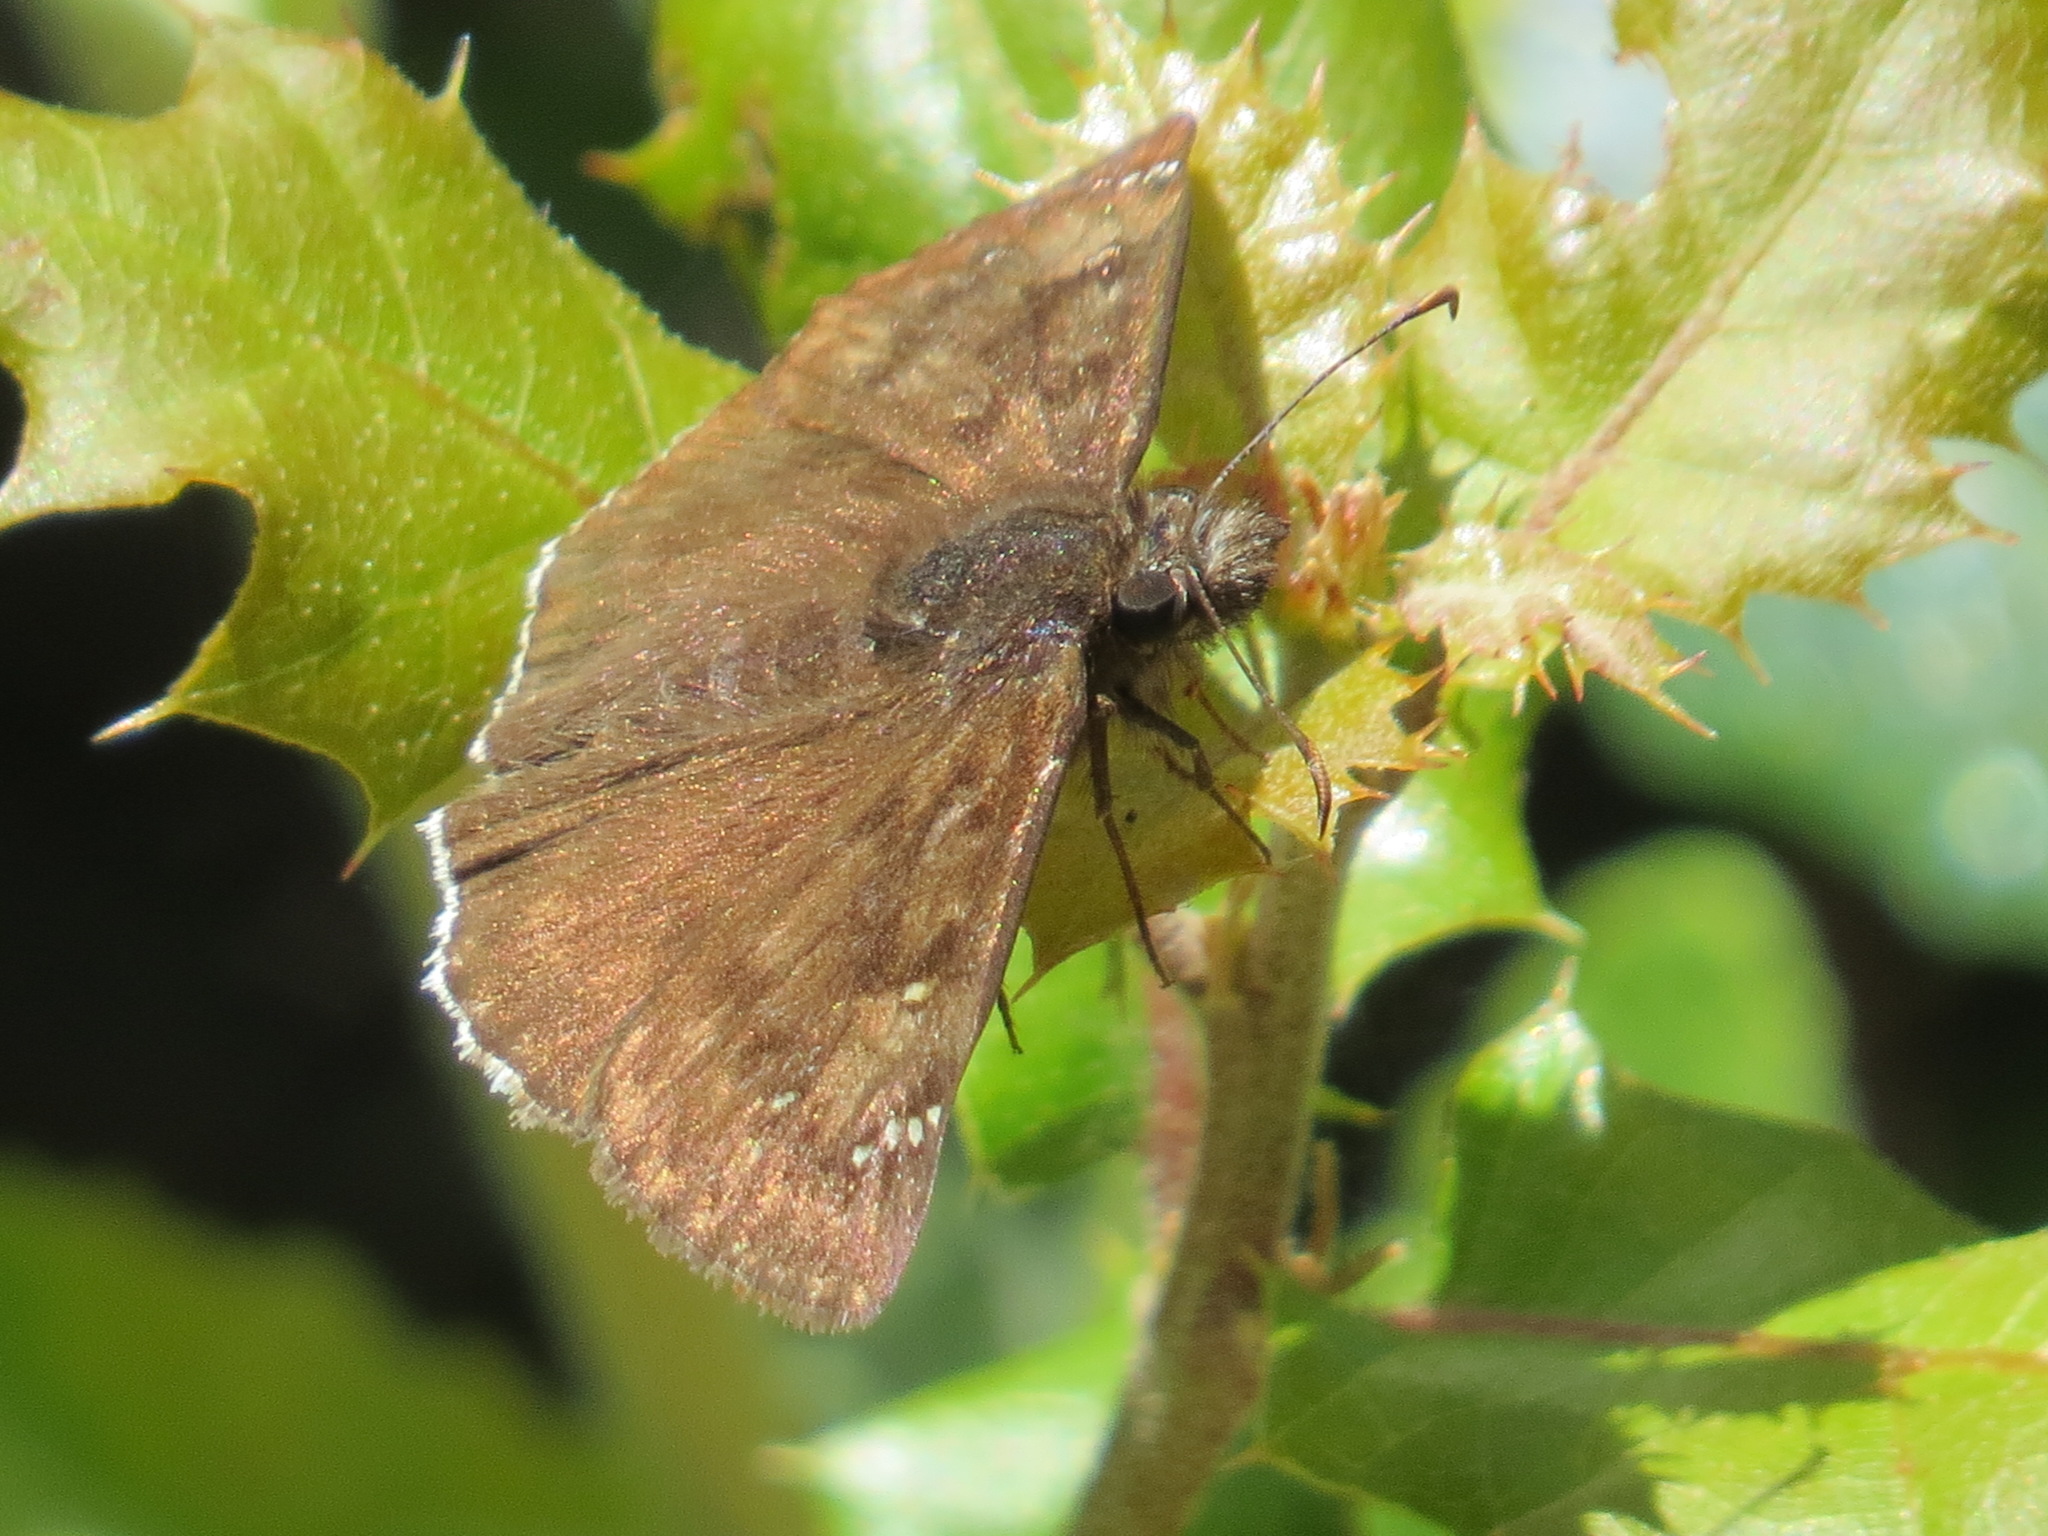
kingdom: Animalia
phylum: Arthropoda
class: Insecta
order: Lepidoptera
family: Hesperiidae
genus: Erynnis
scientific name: Erynnis tristis
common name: Mournful duskywing
